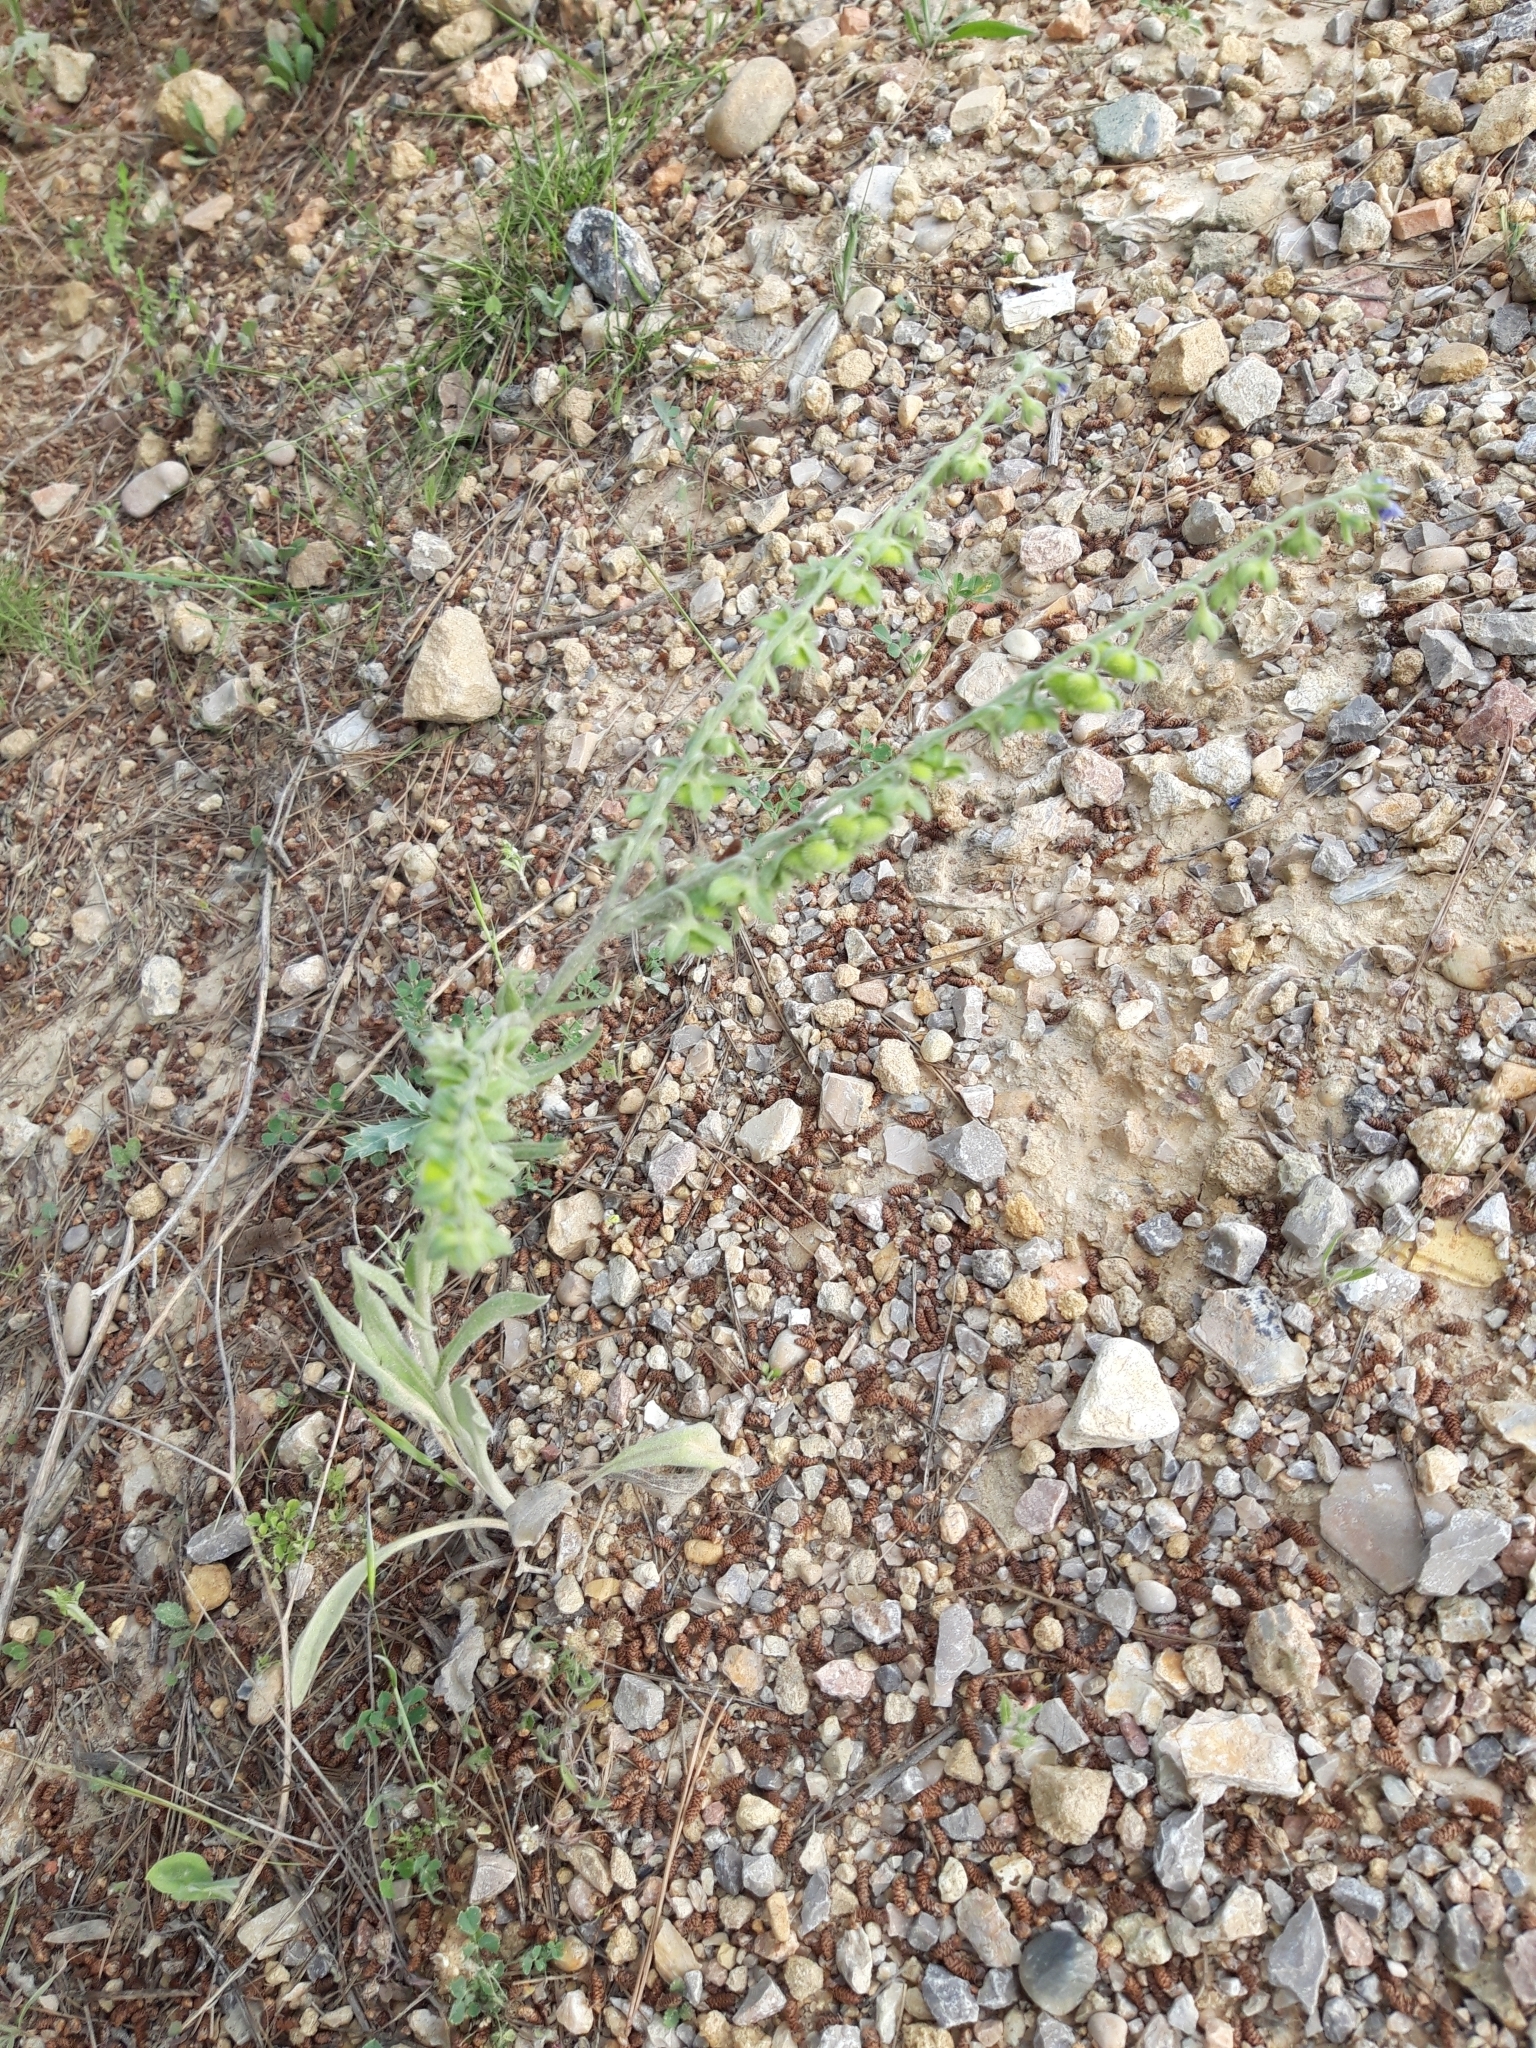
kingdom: Plantae
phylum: Tracheophyta
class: Magnoliopsida
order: Boraginales
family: Boraginaceae
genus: Cynoglossum
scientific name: Cynoglossum creticum
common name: Blue hound's tongue
